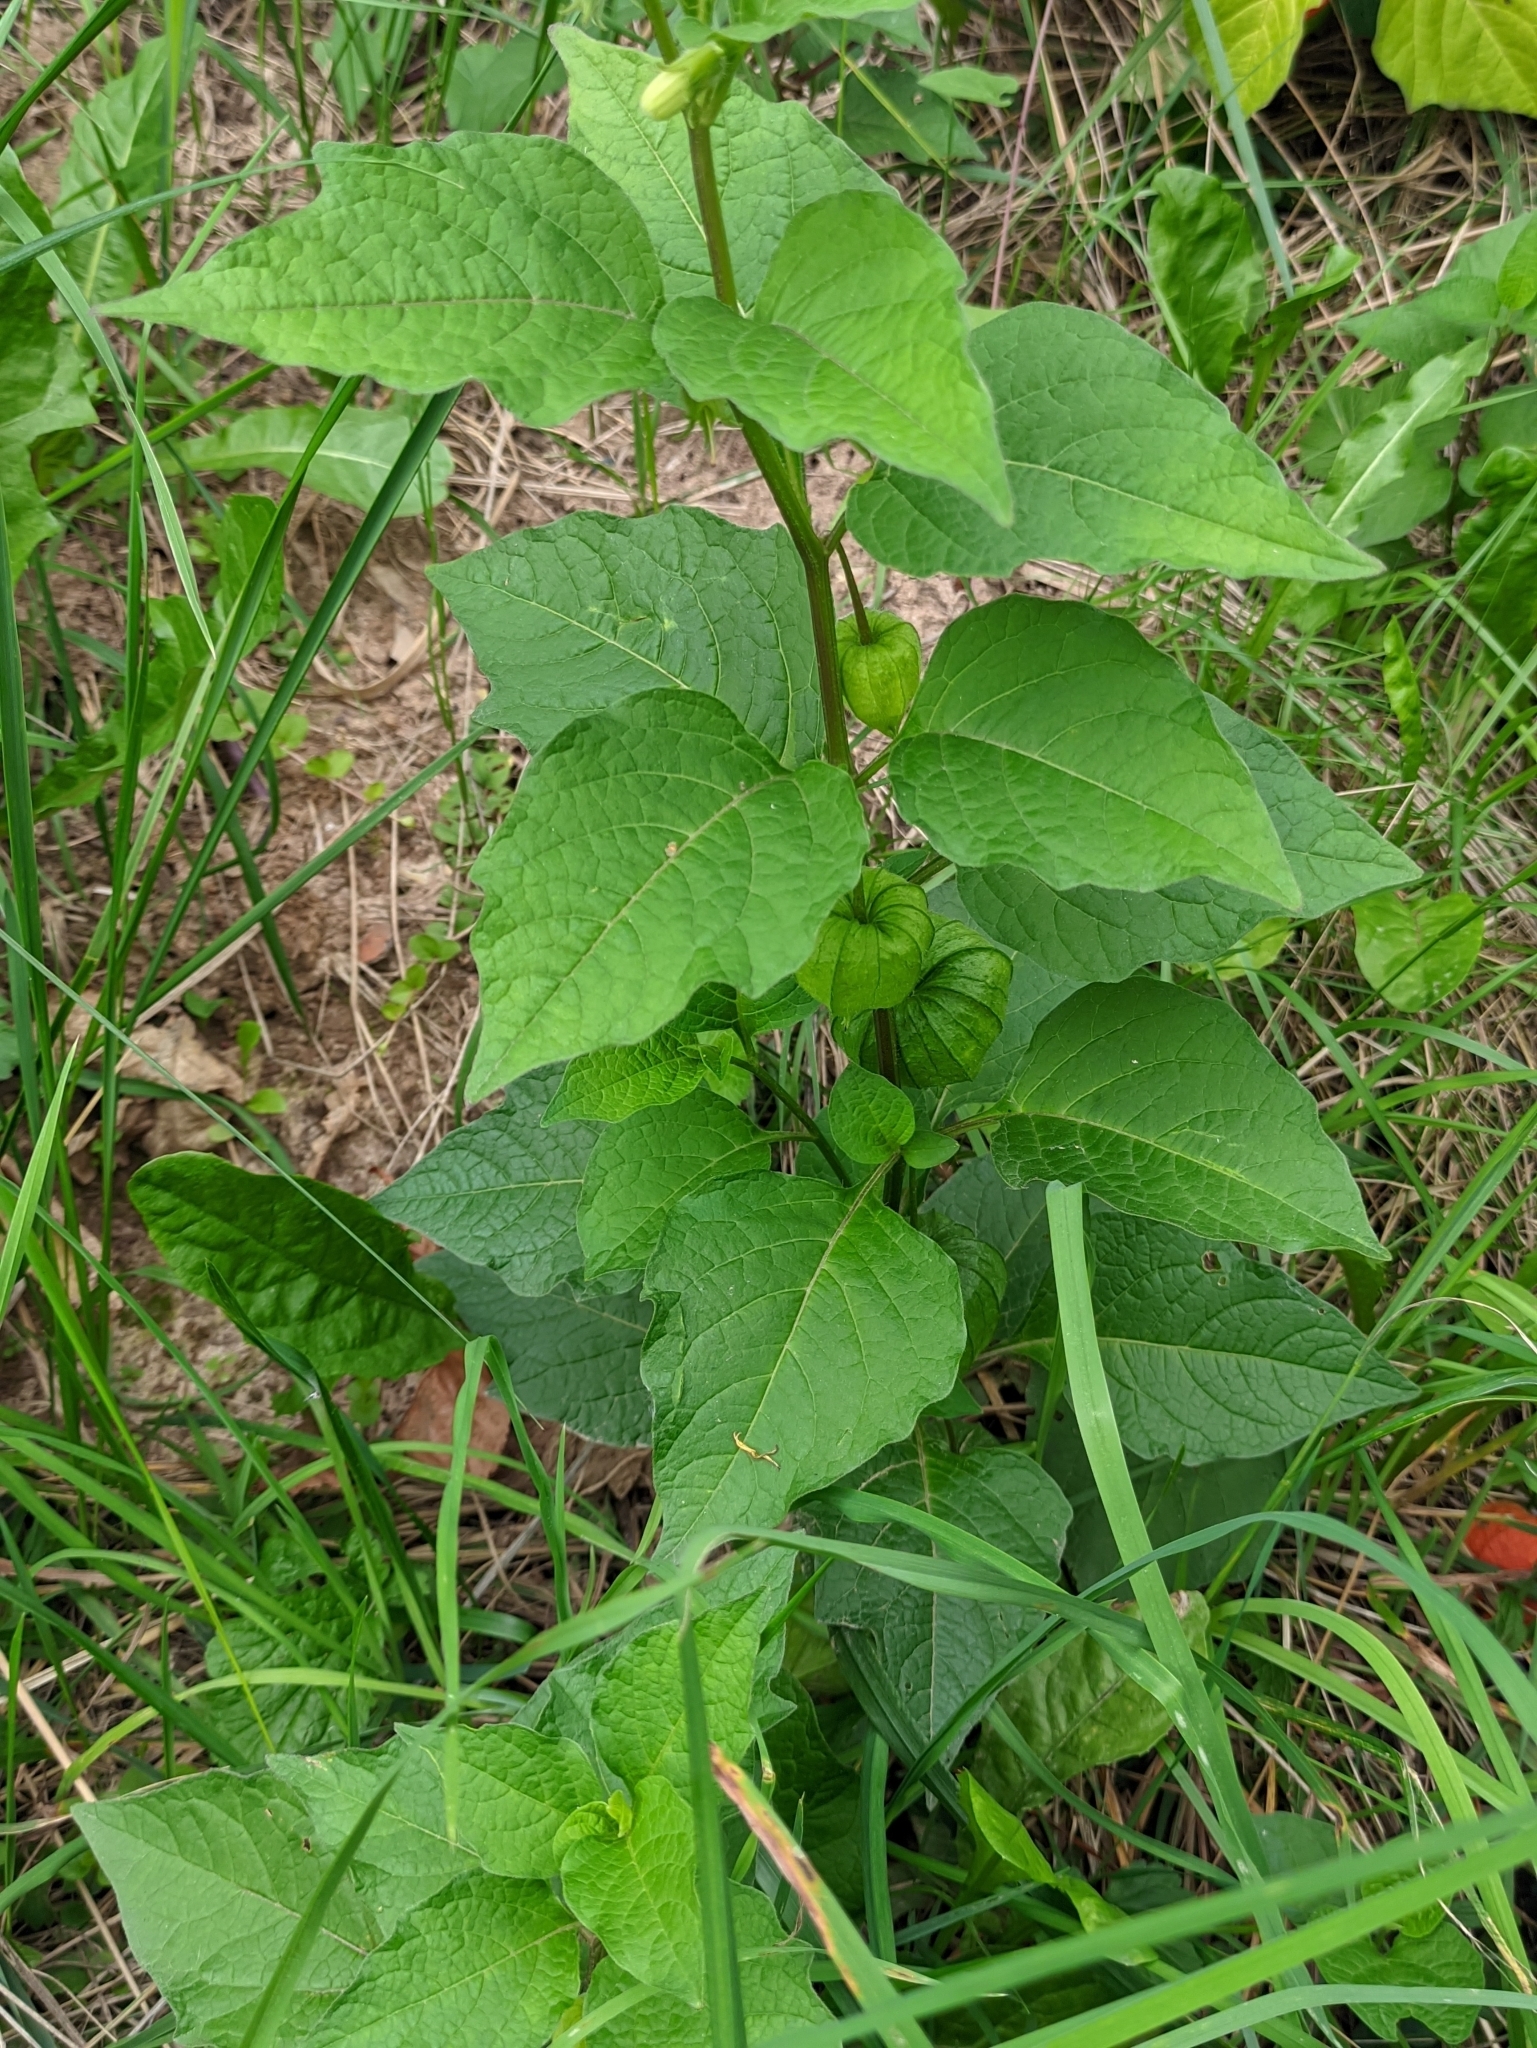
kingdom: Plantae
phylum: Tracheophyta
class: Magnoliopsida
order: Solanales
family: Solanaceae
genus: Alkekengi
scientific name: Alkekengi officinarum
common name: Japanese-lantern
